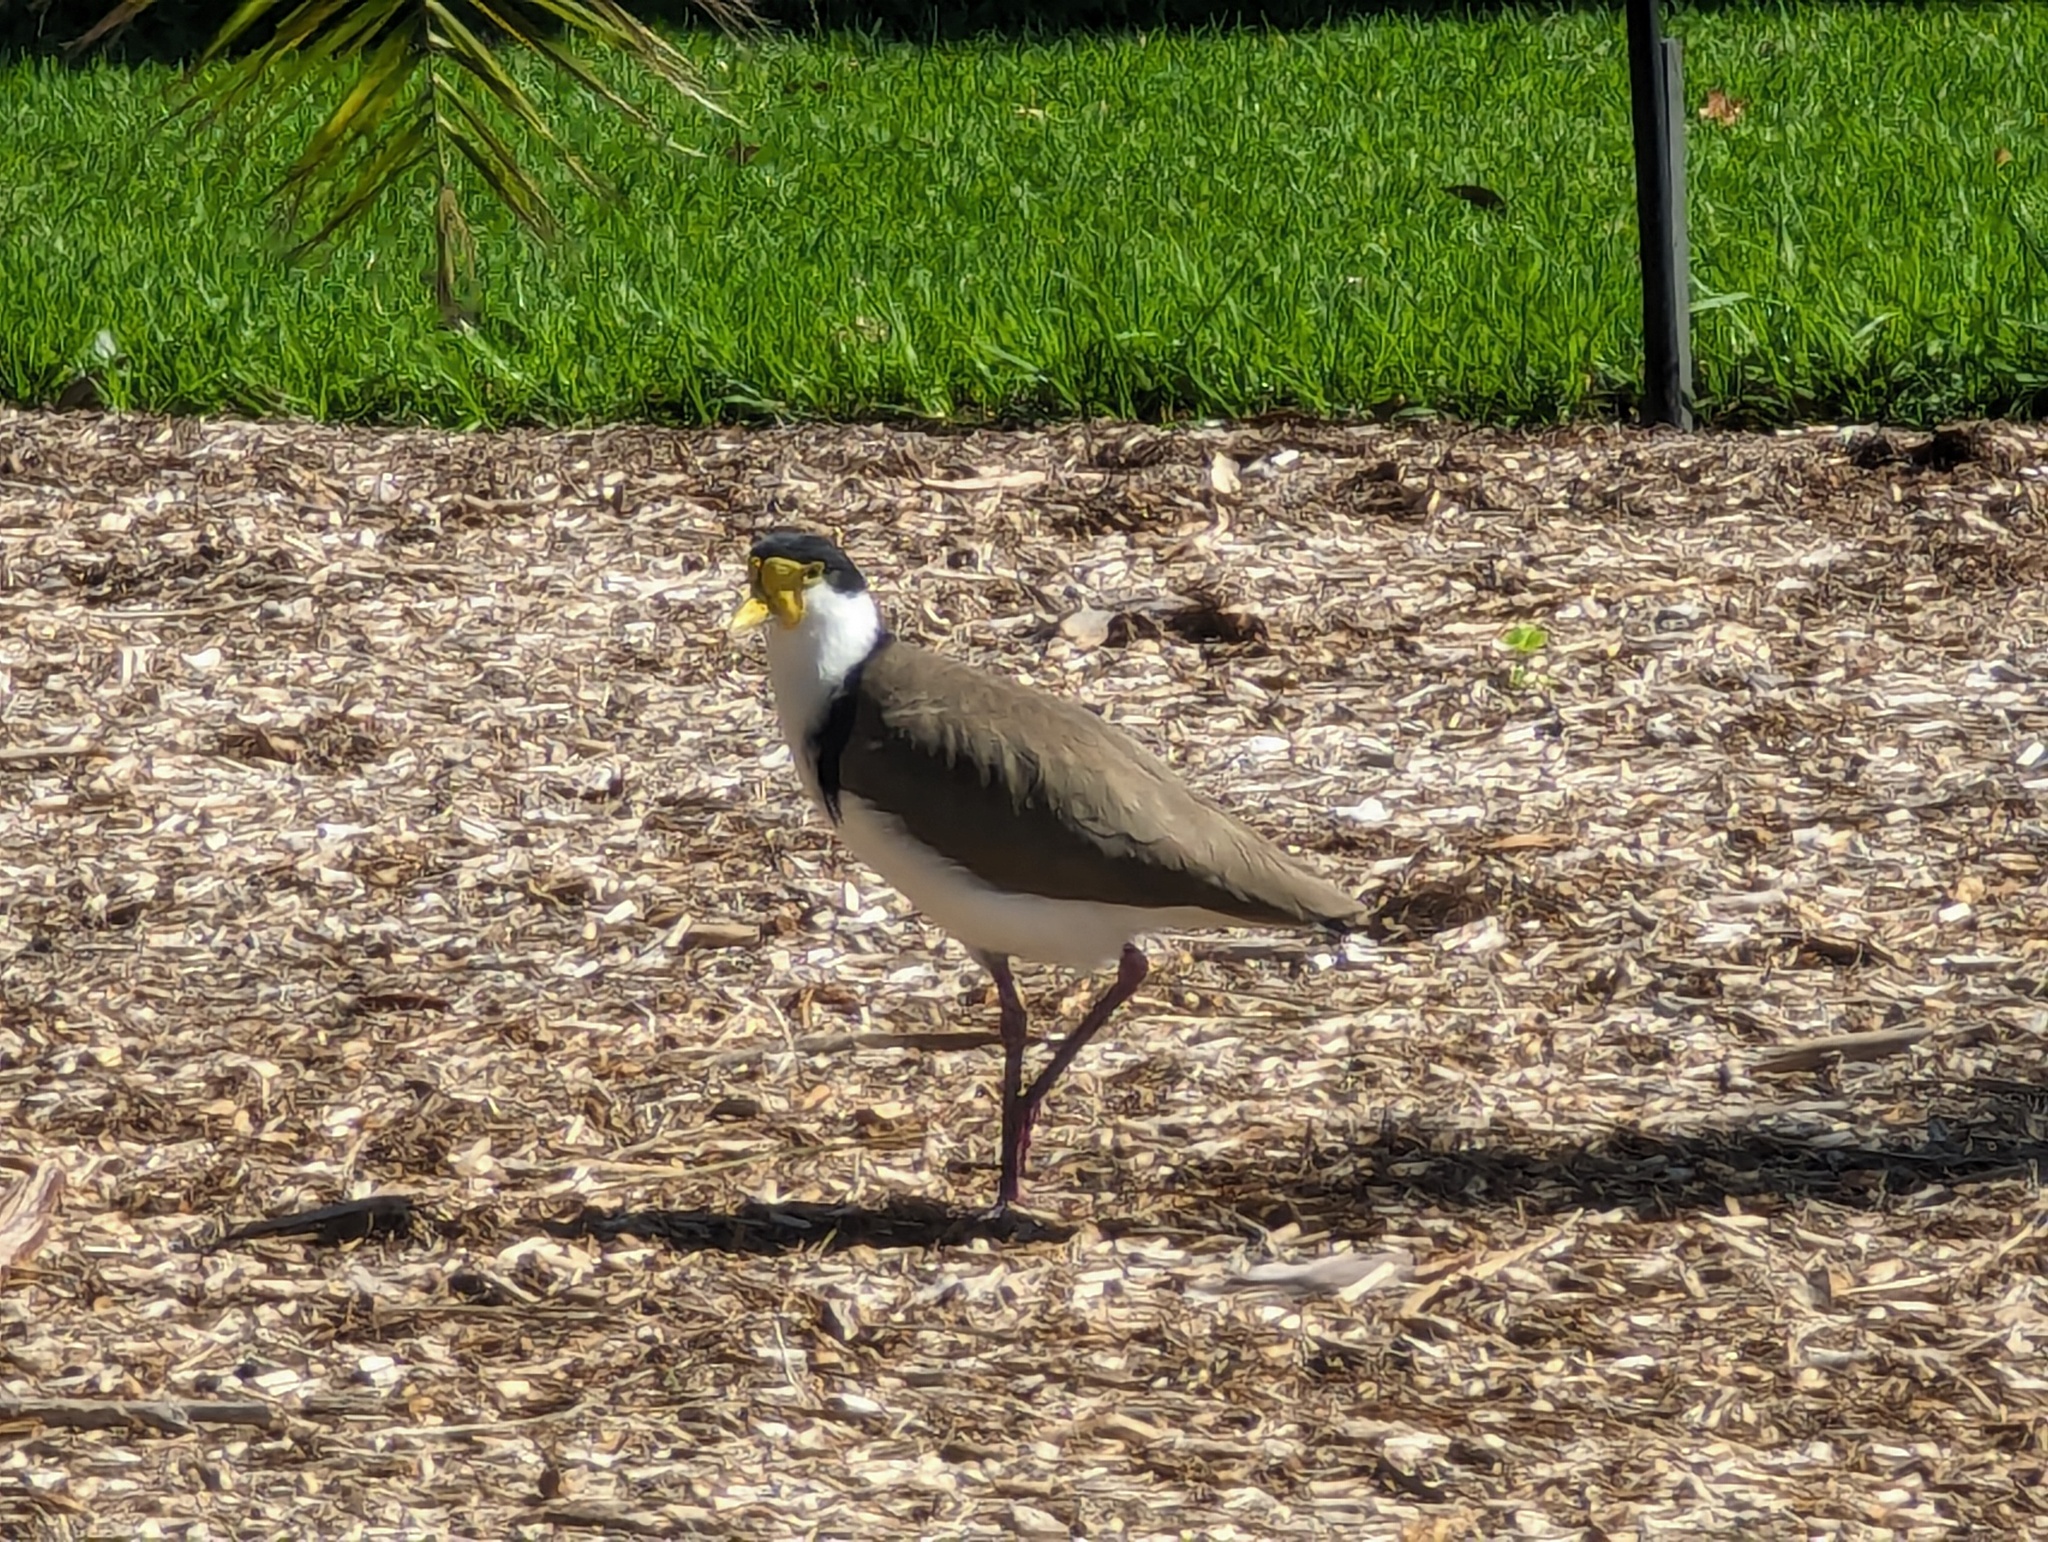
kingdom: Animalia
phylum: Chordata
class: Aves
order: Charadriiformes
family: Charadriidae
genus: Vanellus
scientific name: Vanellus miles
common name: Masked lapwing
